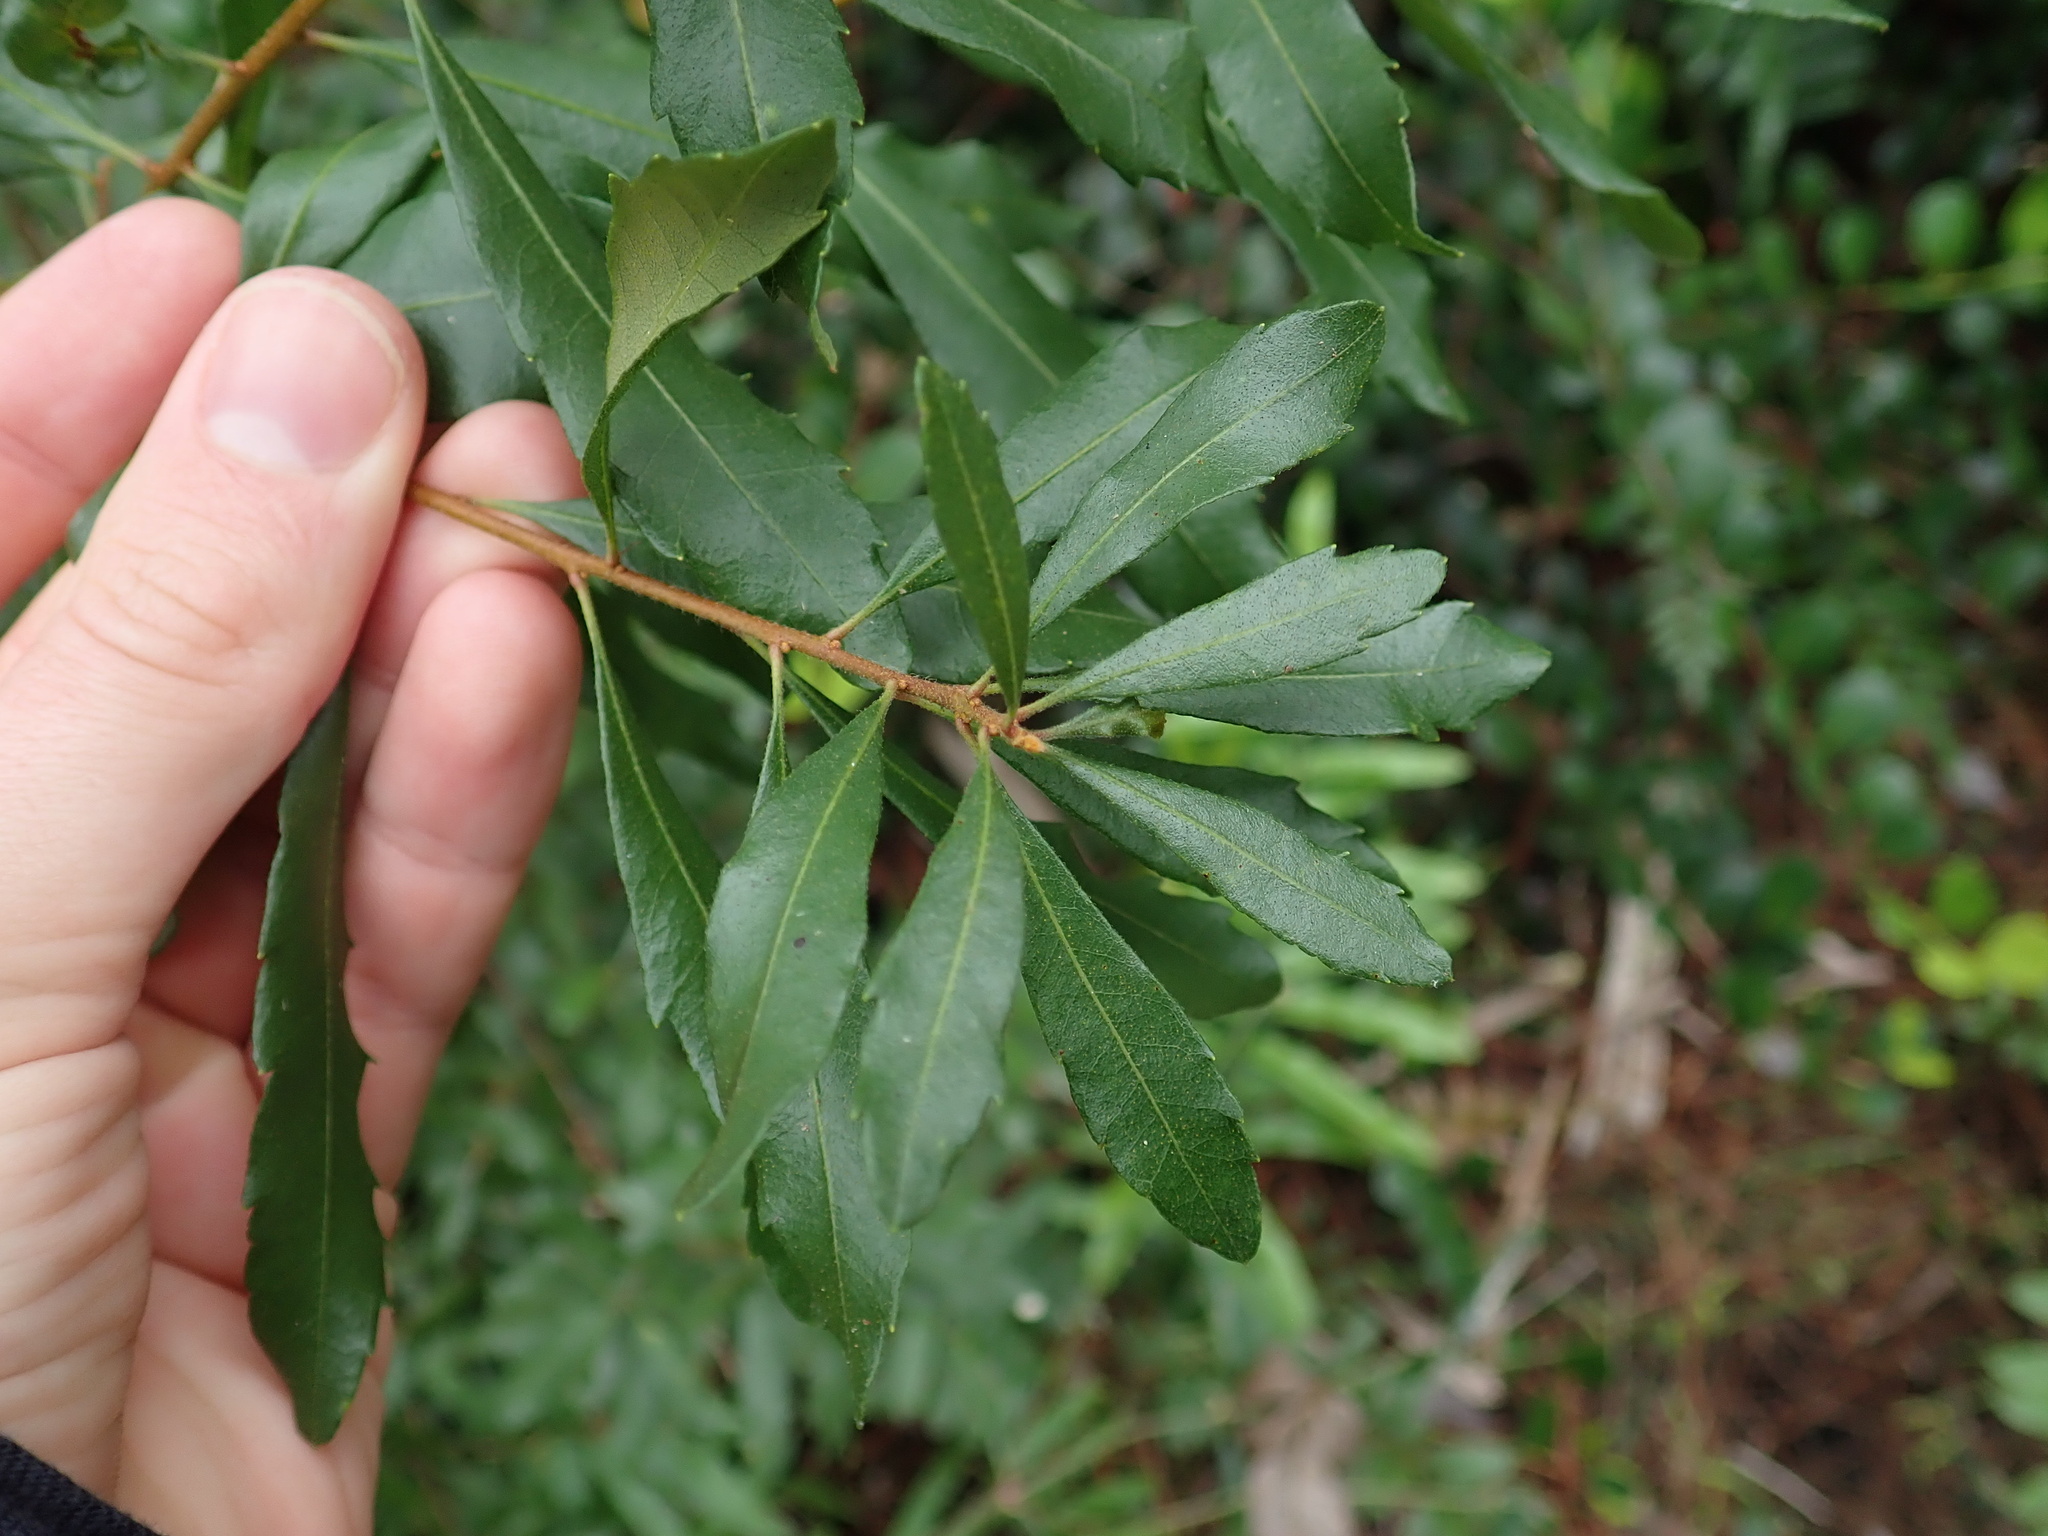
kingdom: Plantae
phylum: Tracheophyta
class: Magnoliopsida
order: Fagales
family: Myricaceae
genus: Morella
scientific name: Morella cerifera
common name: Wax myrtle
